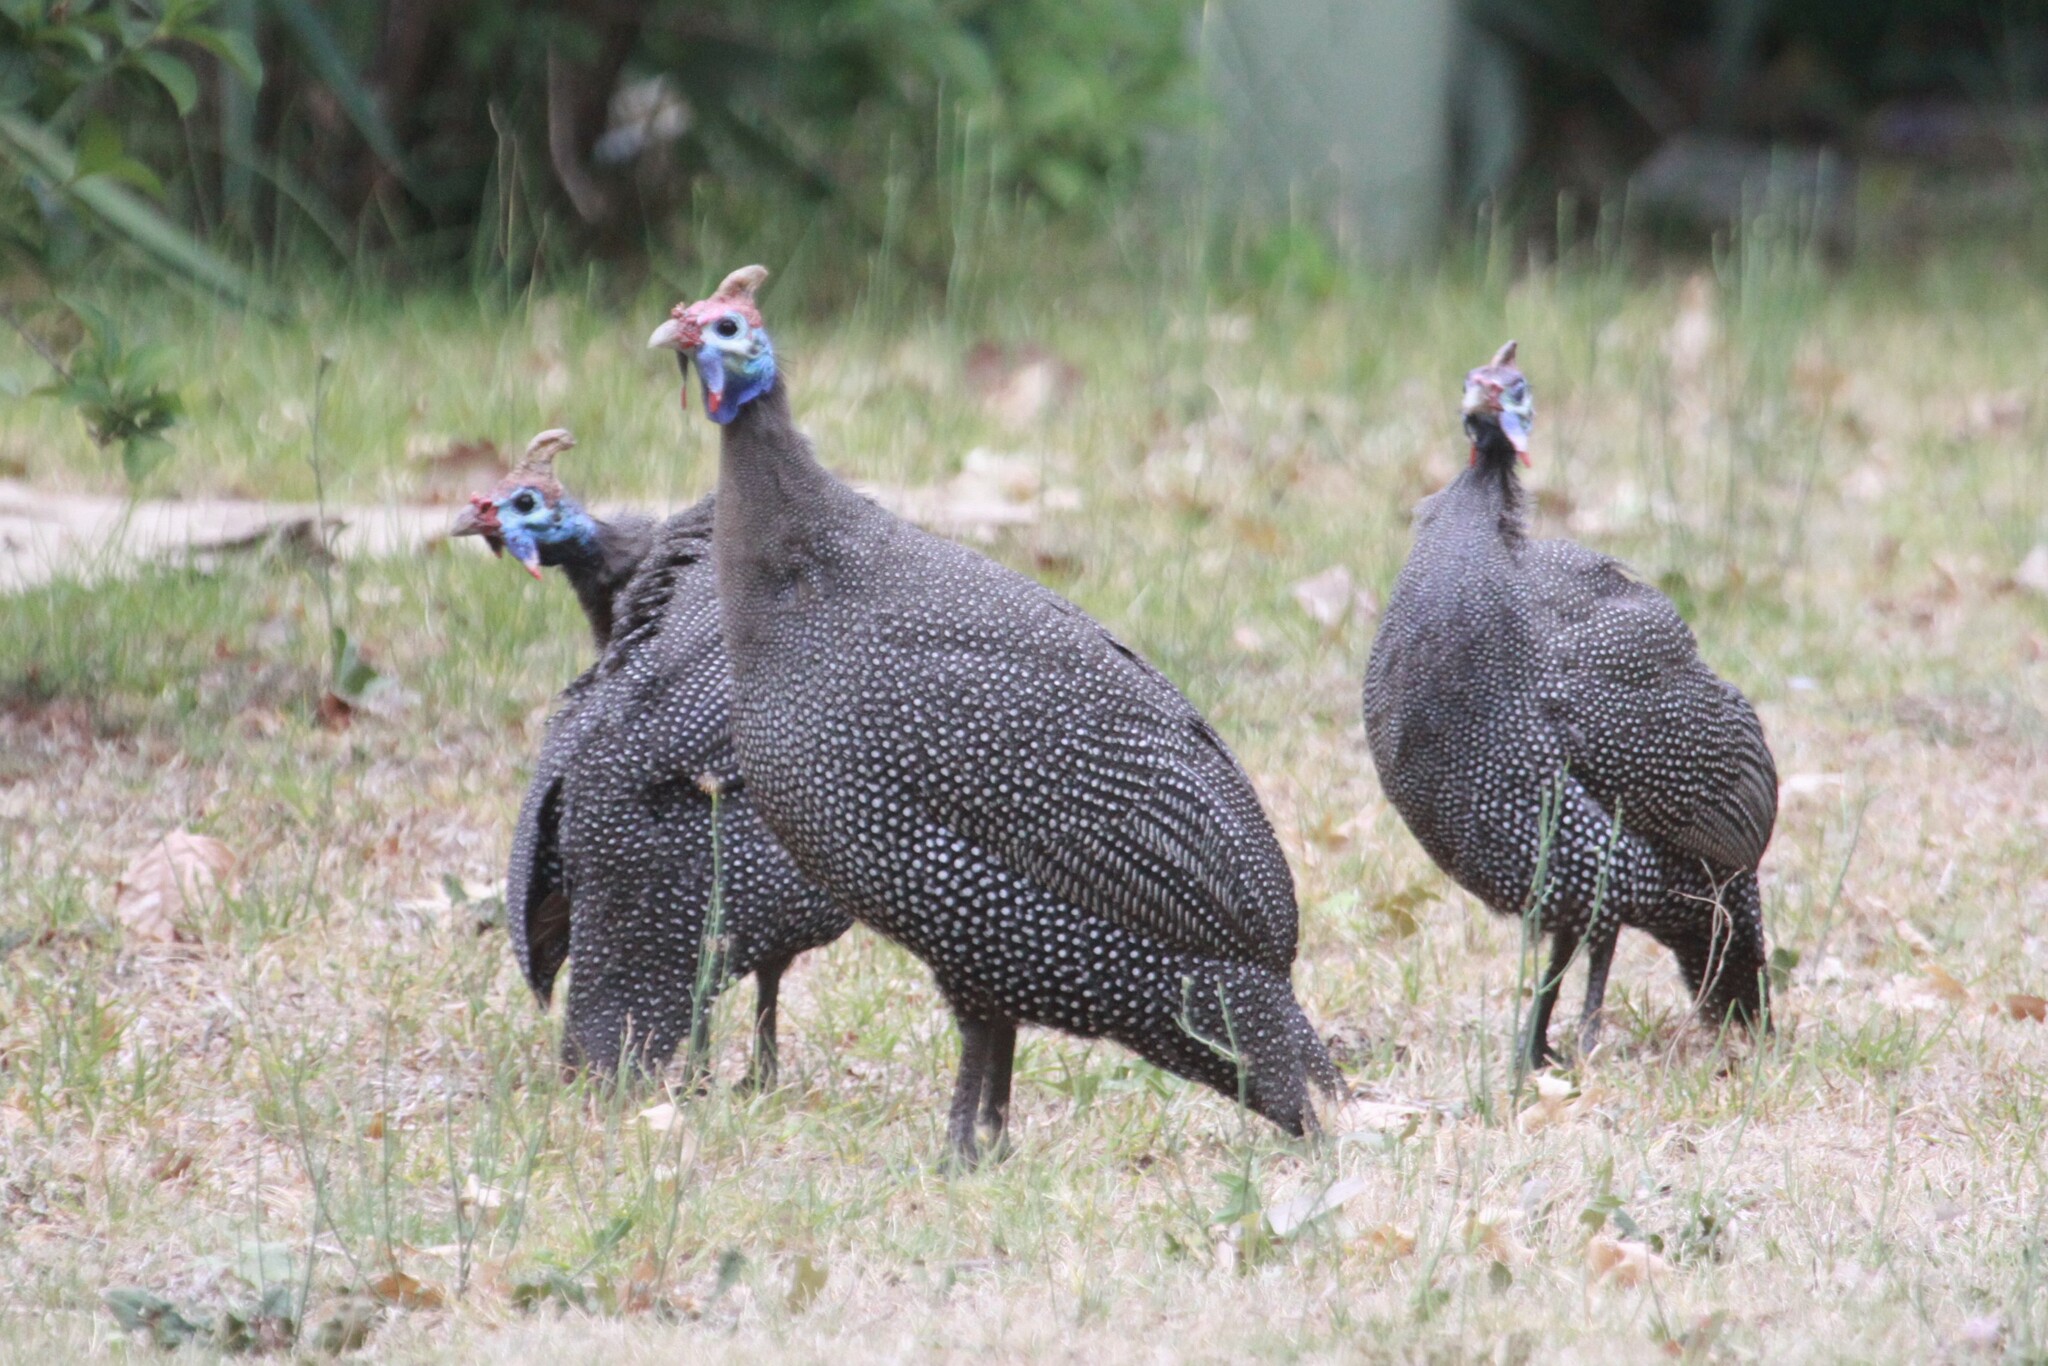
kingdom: Animalia
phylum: Chordata
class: Aves
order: Galliformes
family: Numididae
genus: Numida
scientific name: Numida meleagris
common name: Helmeted guineafowl
